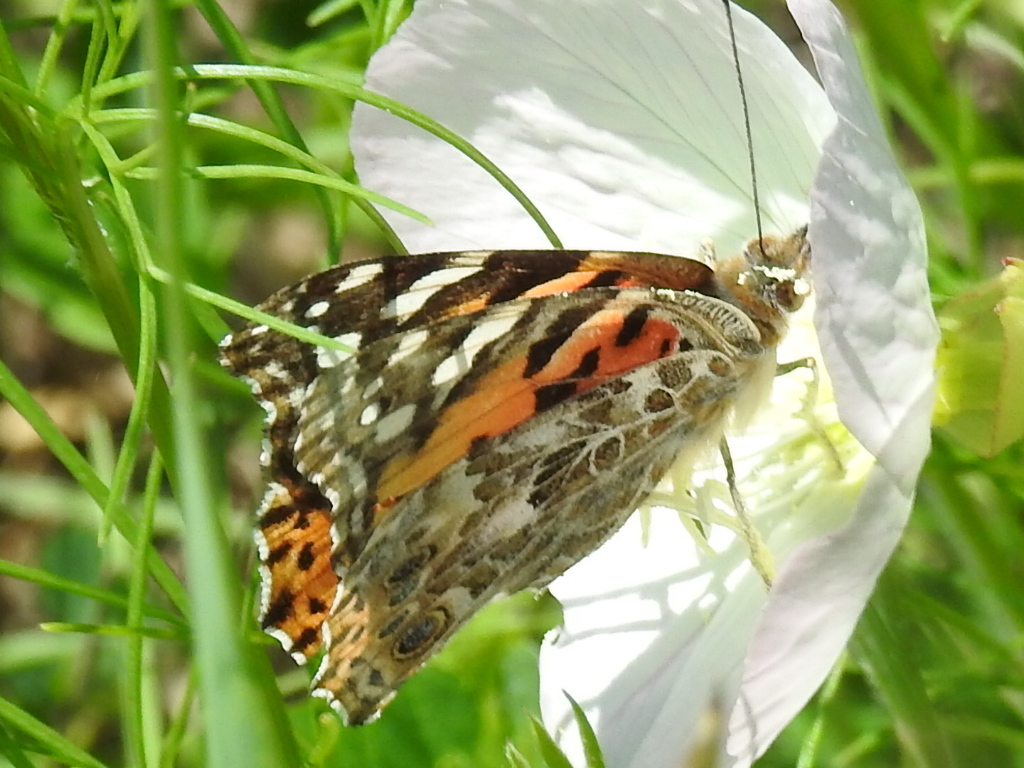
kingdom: Animalia
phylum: Arthropoda
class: Insecta
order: Lepidoptera
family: Nymphalidae
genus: Vanessa
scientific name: Vanessa cardui
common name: Painted lady
